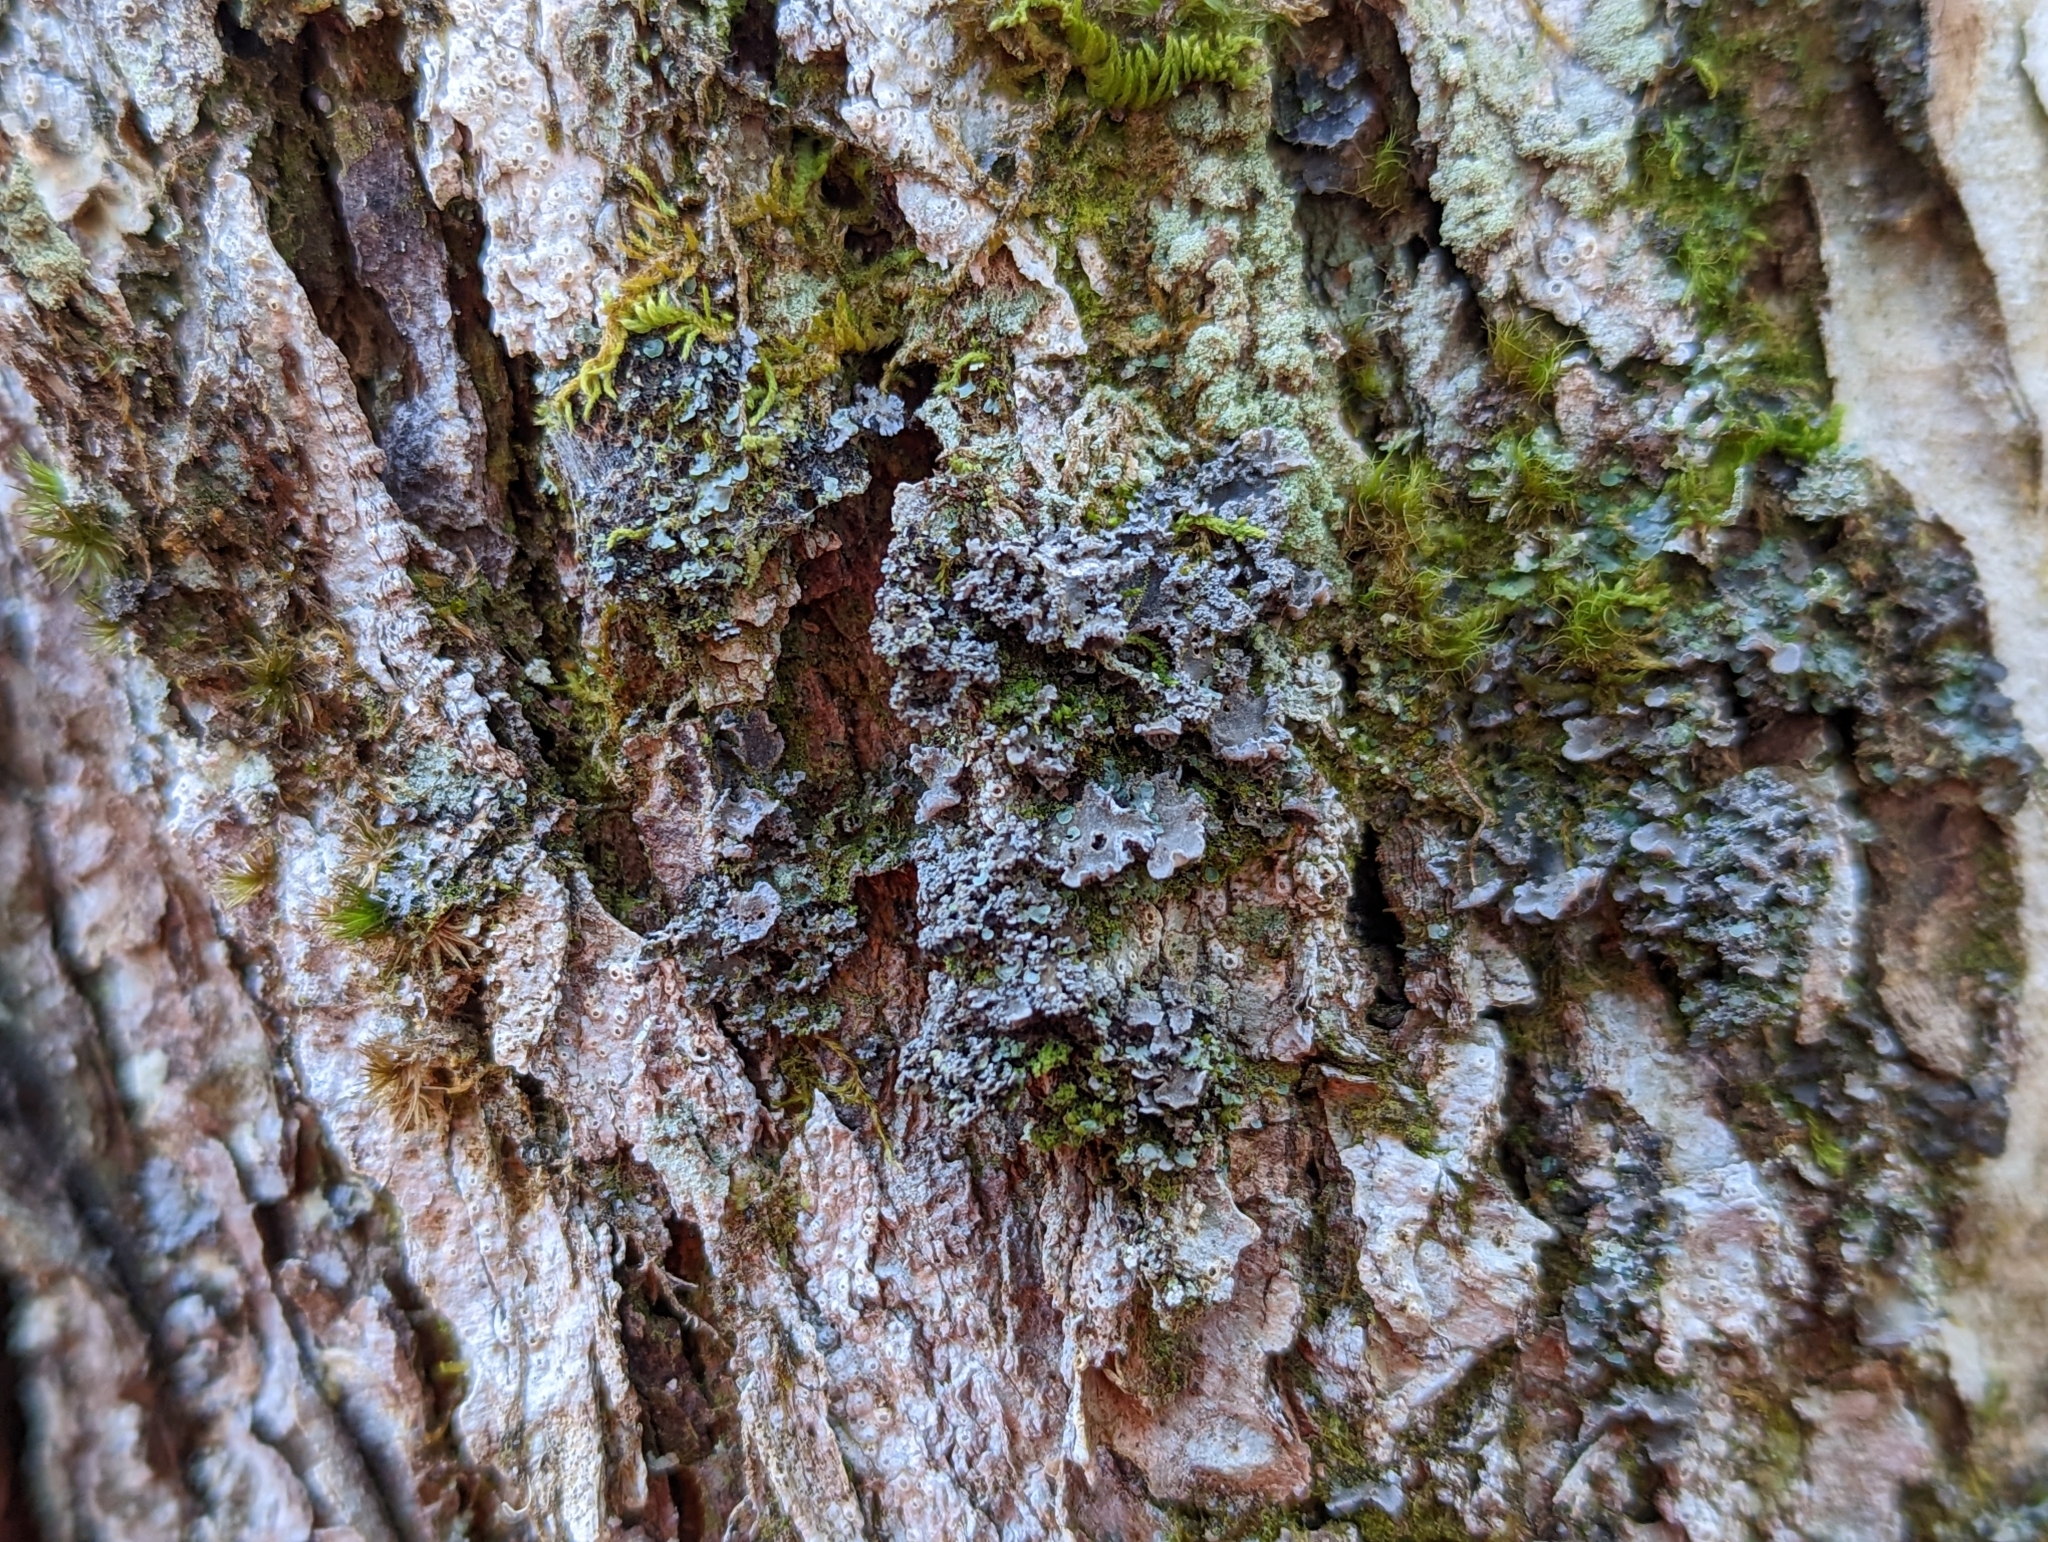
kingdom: Fungi
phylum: Ascomycota
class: Lecanoromycetes
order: Peltigerales
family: Pannariaceae
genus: Erioderma
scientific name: Erioderma mollissimum
